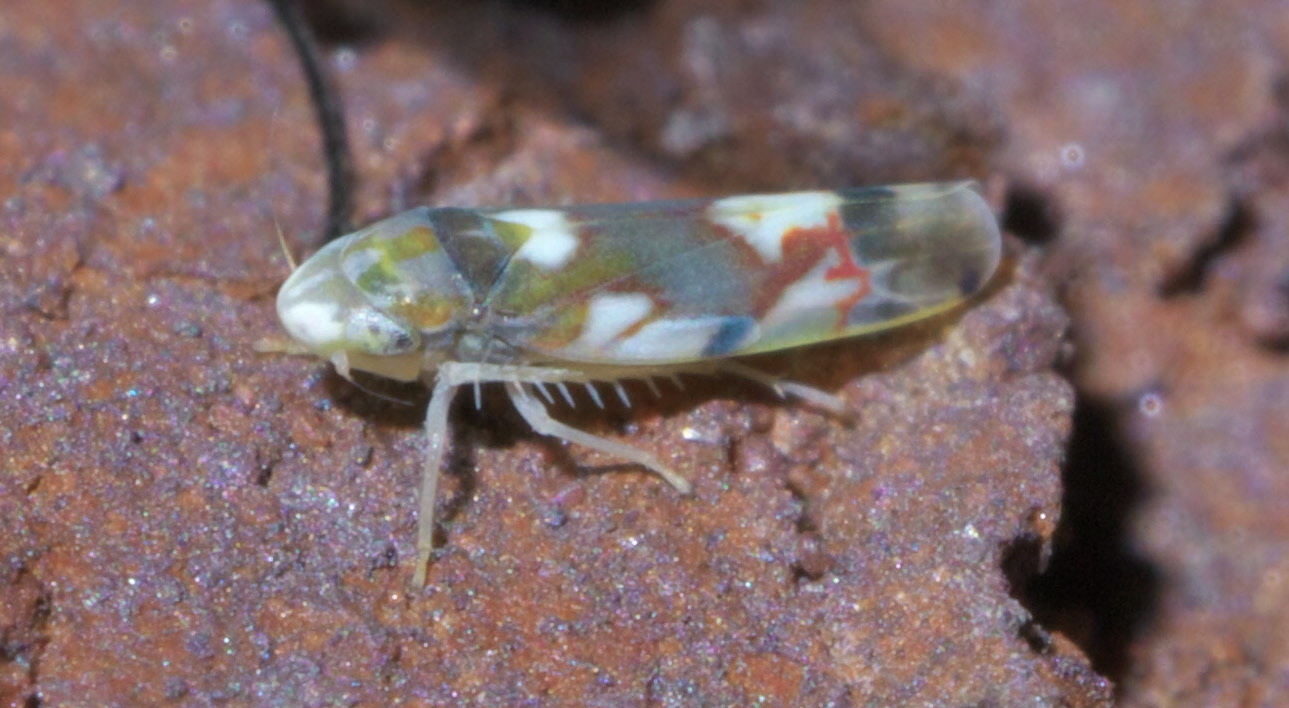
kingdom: Animalia
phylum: Arthropoda
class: Insecta
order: Hemiptera
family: Cicadellidae
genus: Erythroneura
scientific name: Erythroneura elegans
